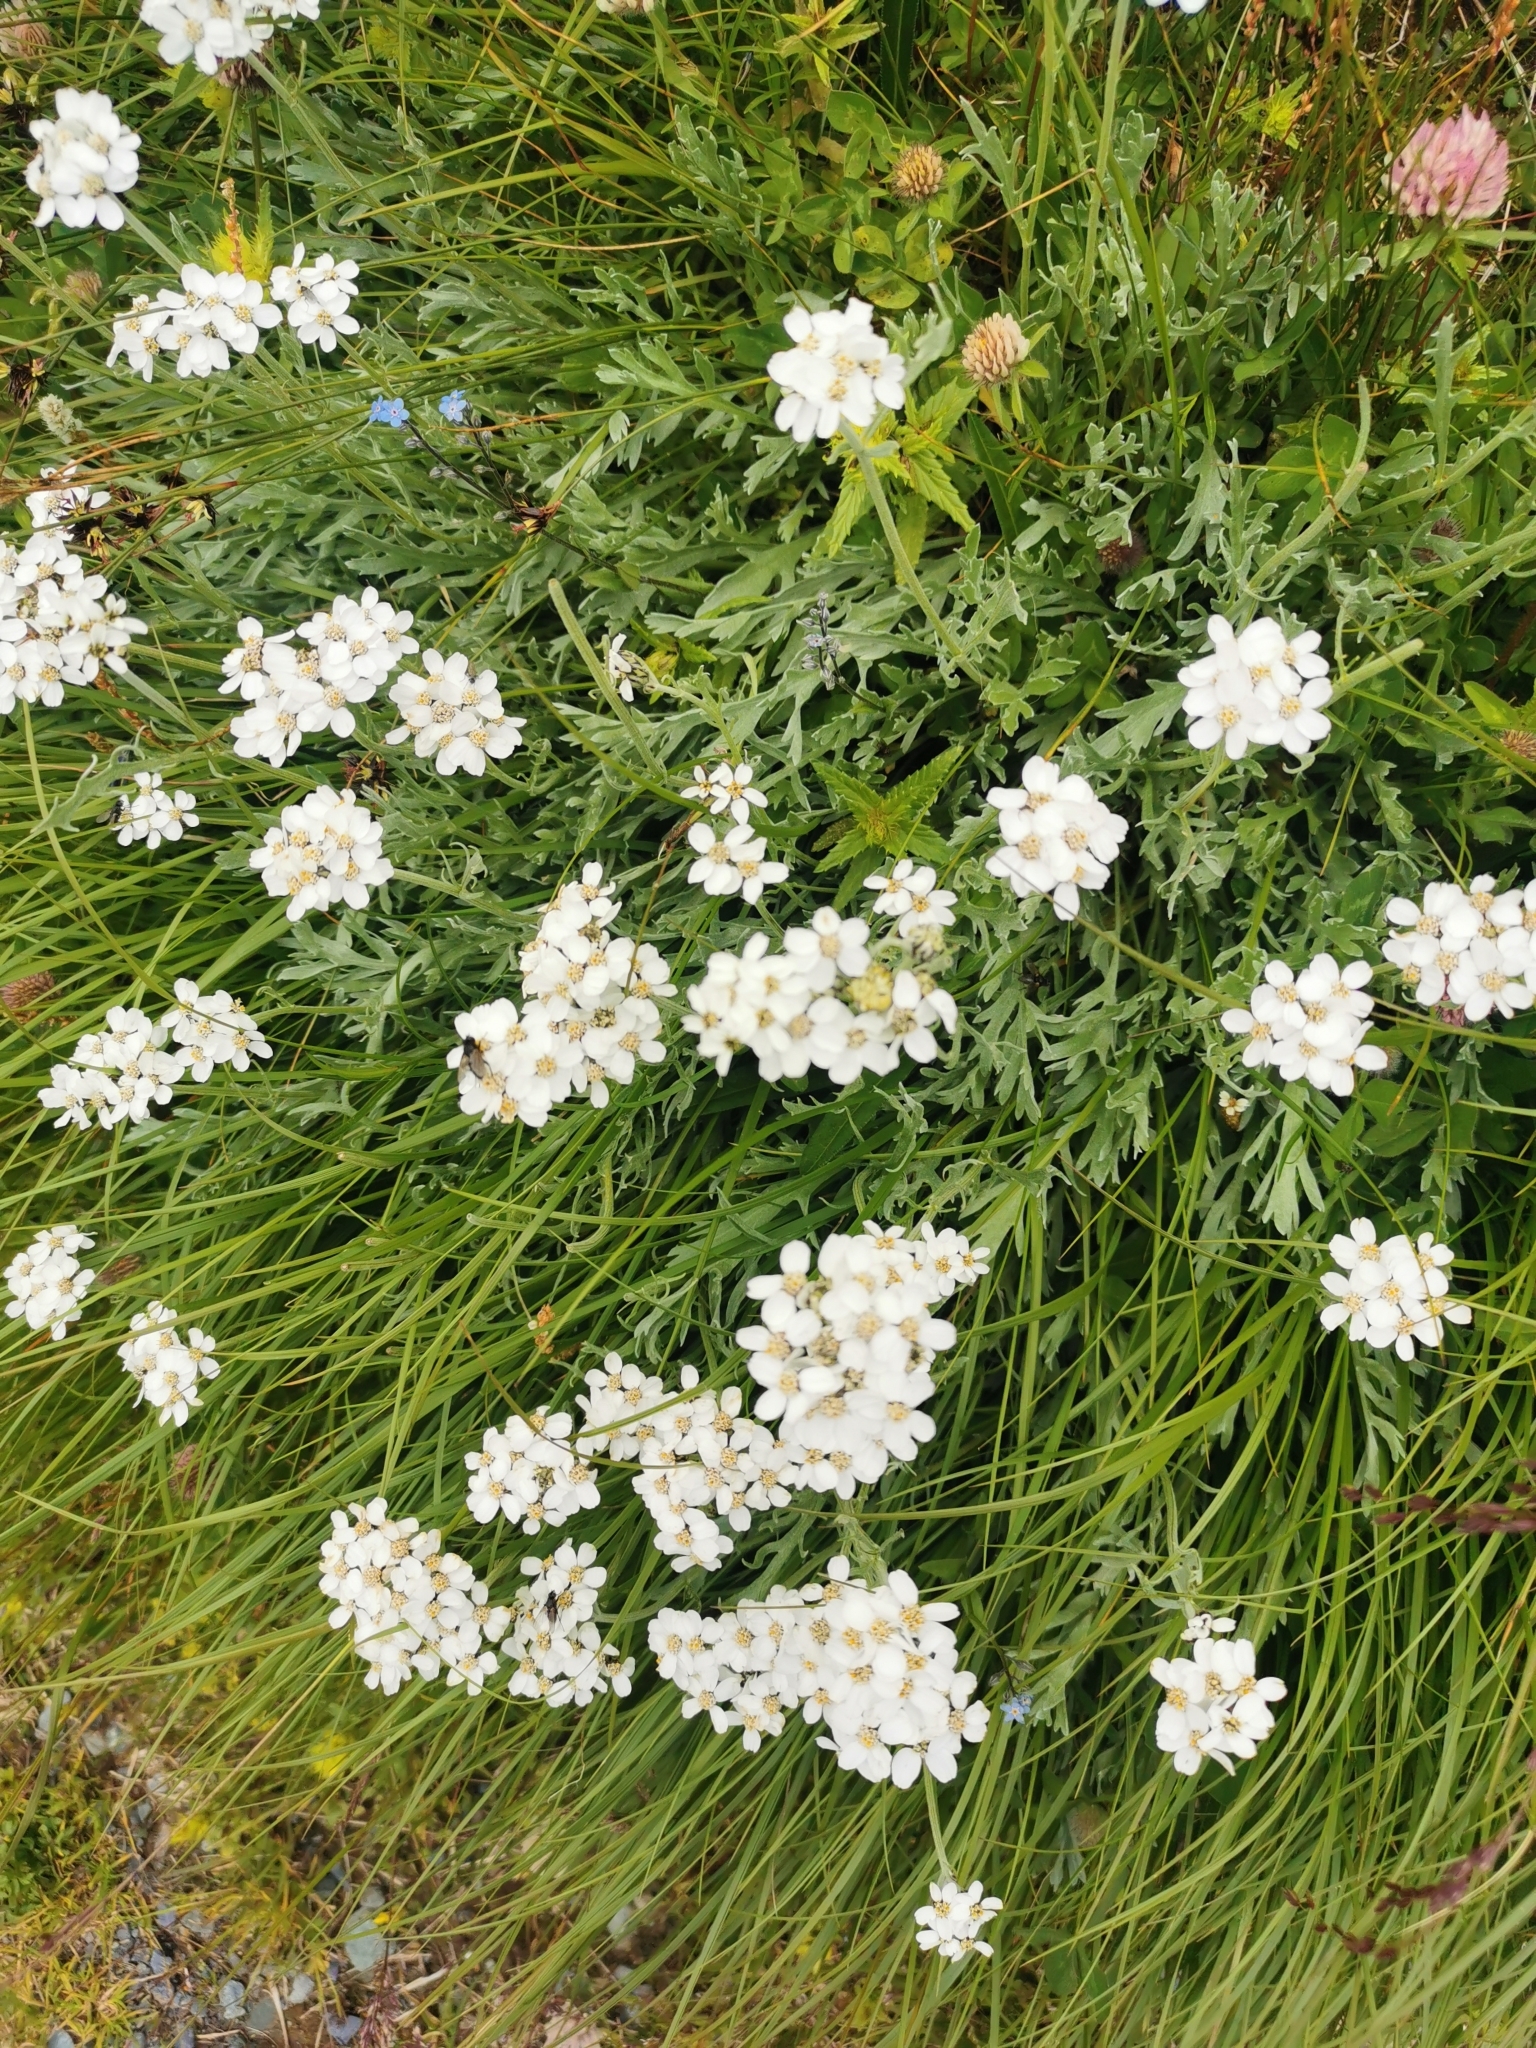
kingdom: Plantae
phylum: Tracheophyta
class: Magnoliopsida
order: Asterales
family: Asteraceae
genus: Achillea
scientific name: Achillea clavennae
